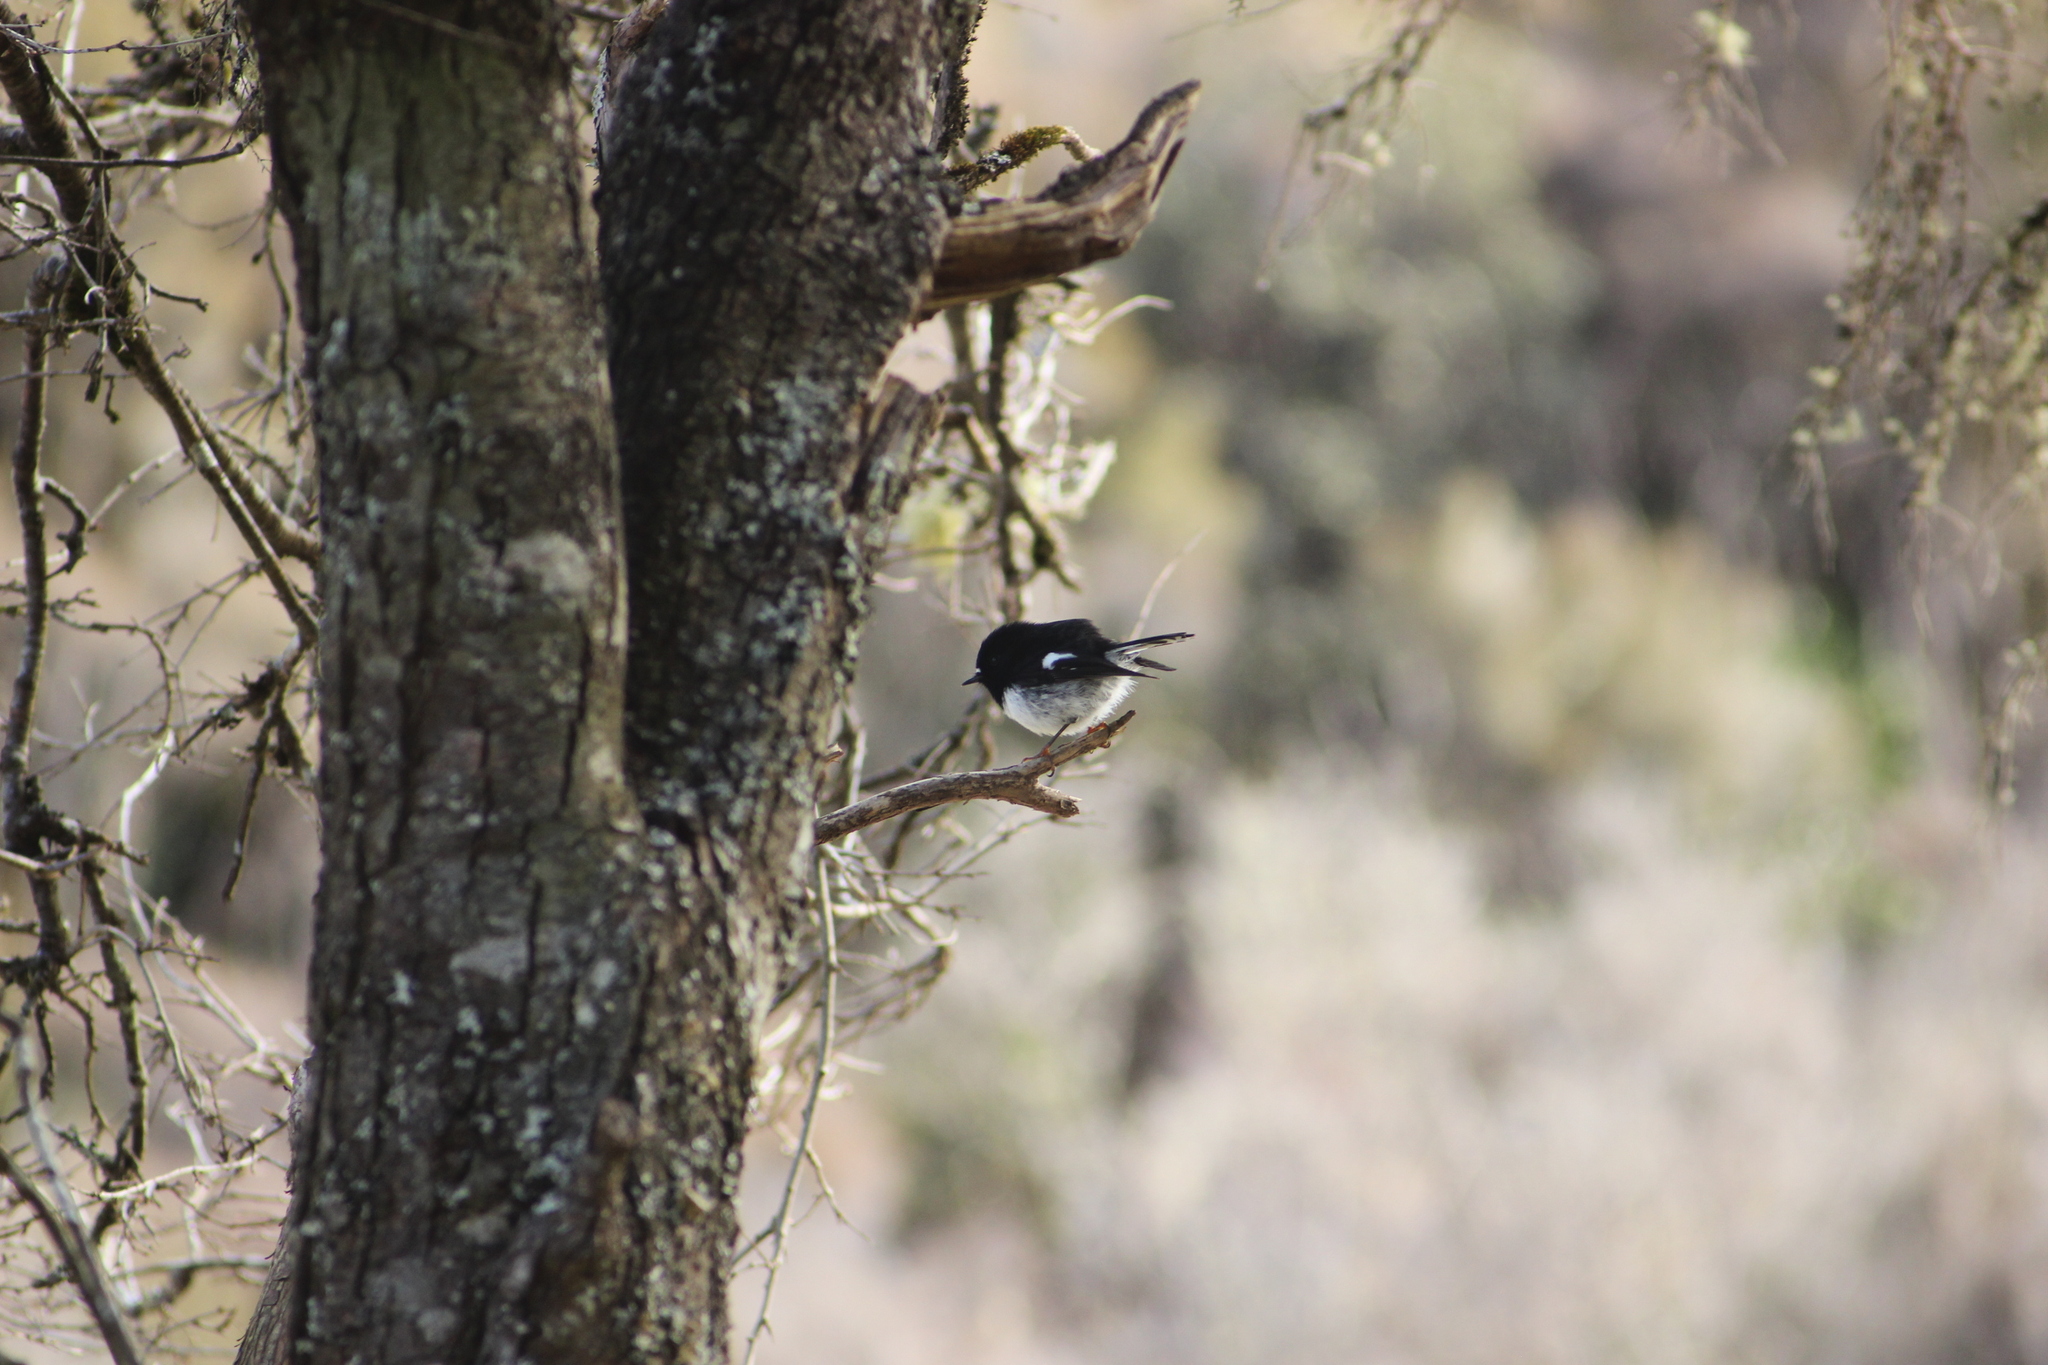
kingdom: Animalia
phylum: Chordata
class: Aves
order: Passeriformes
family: Petroicidae
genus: Petroica
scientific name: Petroica macrocephala
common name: Tomtit
